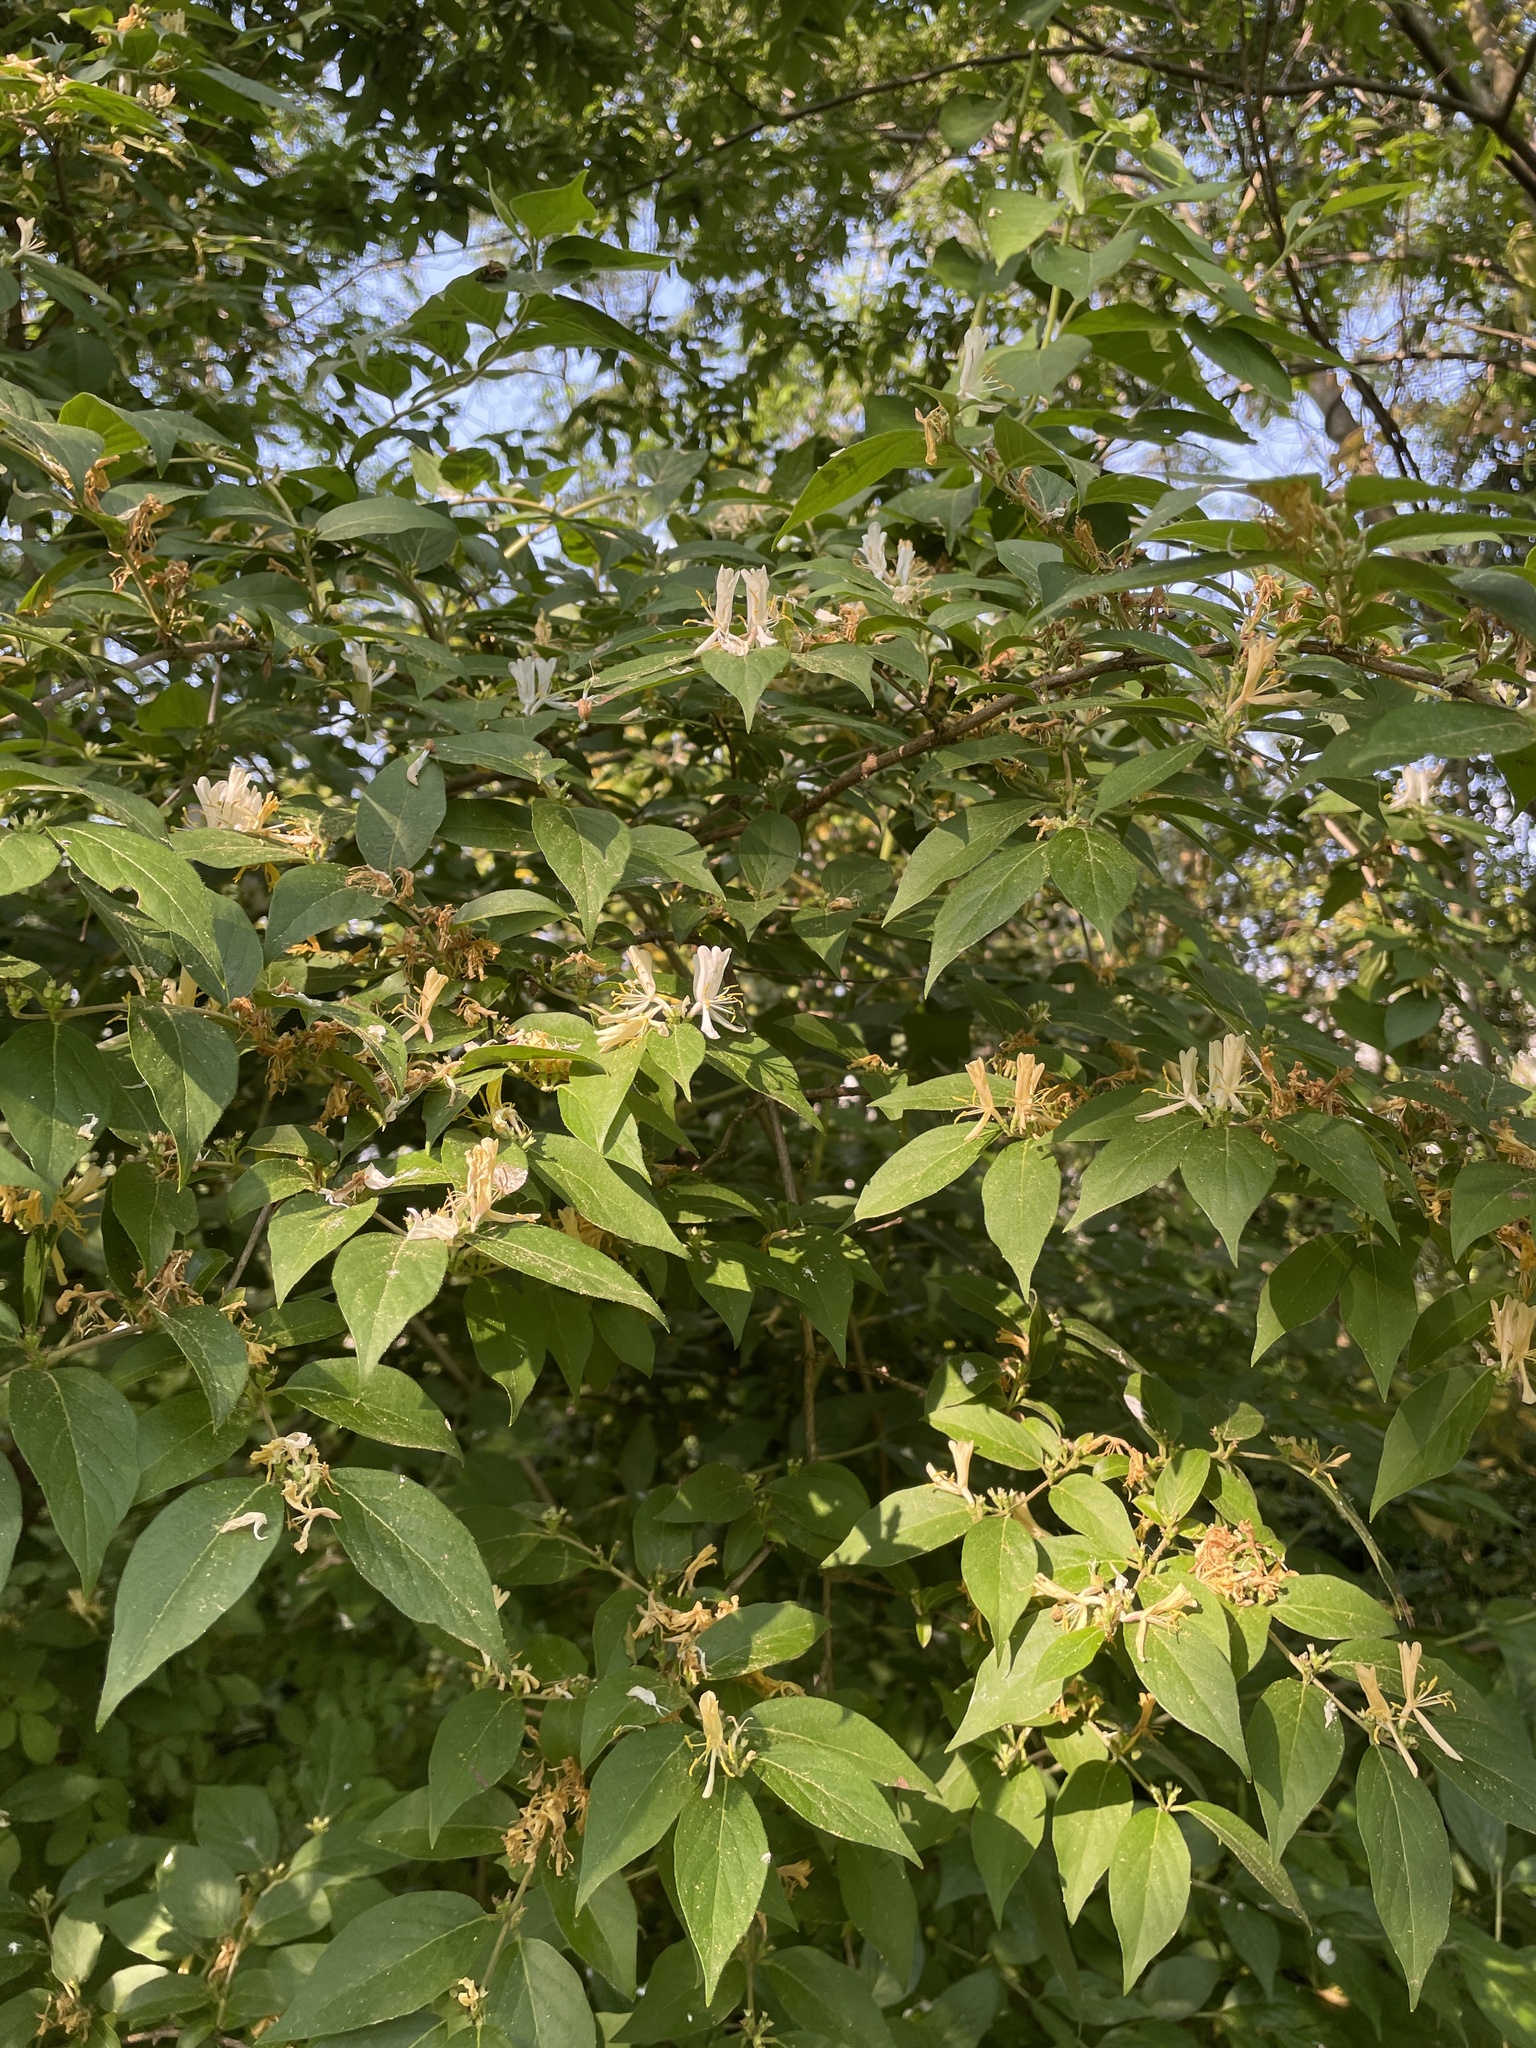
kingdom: Plantae
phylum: Tracheophyta
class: Magnoliopsida
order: Dipsacales
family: Caprifoliaceae
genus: Lonicera
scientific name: Lonicera maackii
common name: Amur honeysuckle
